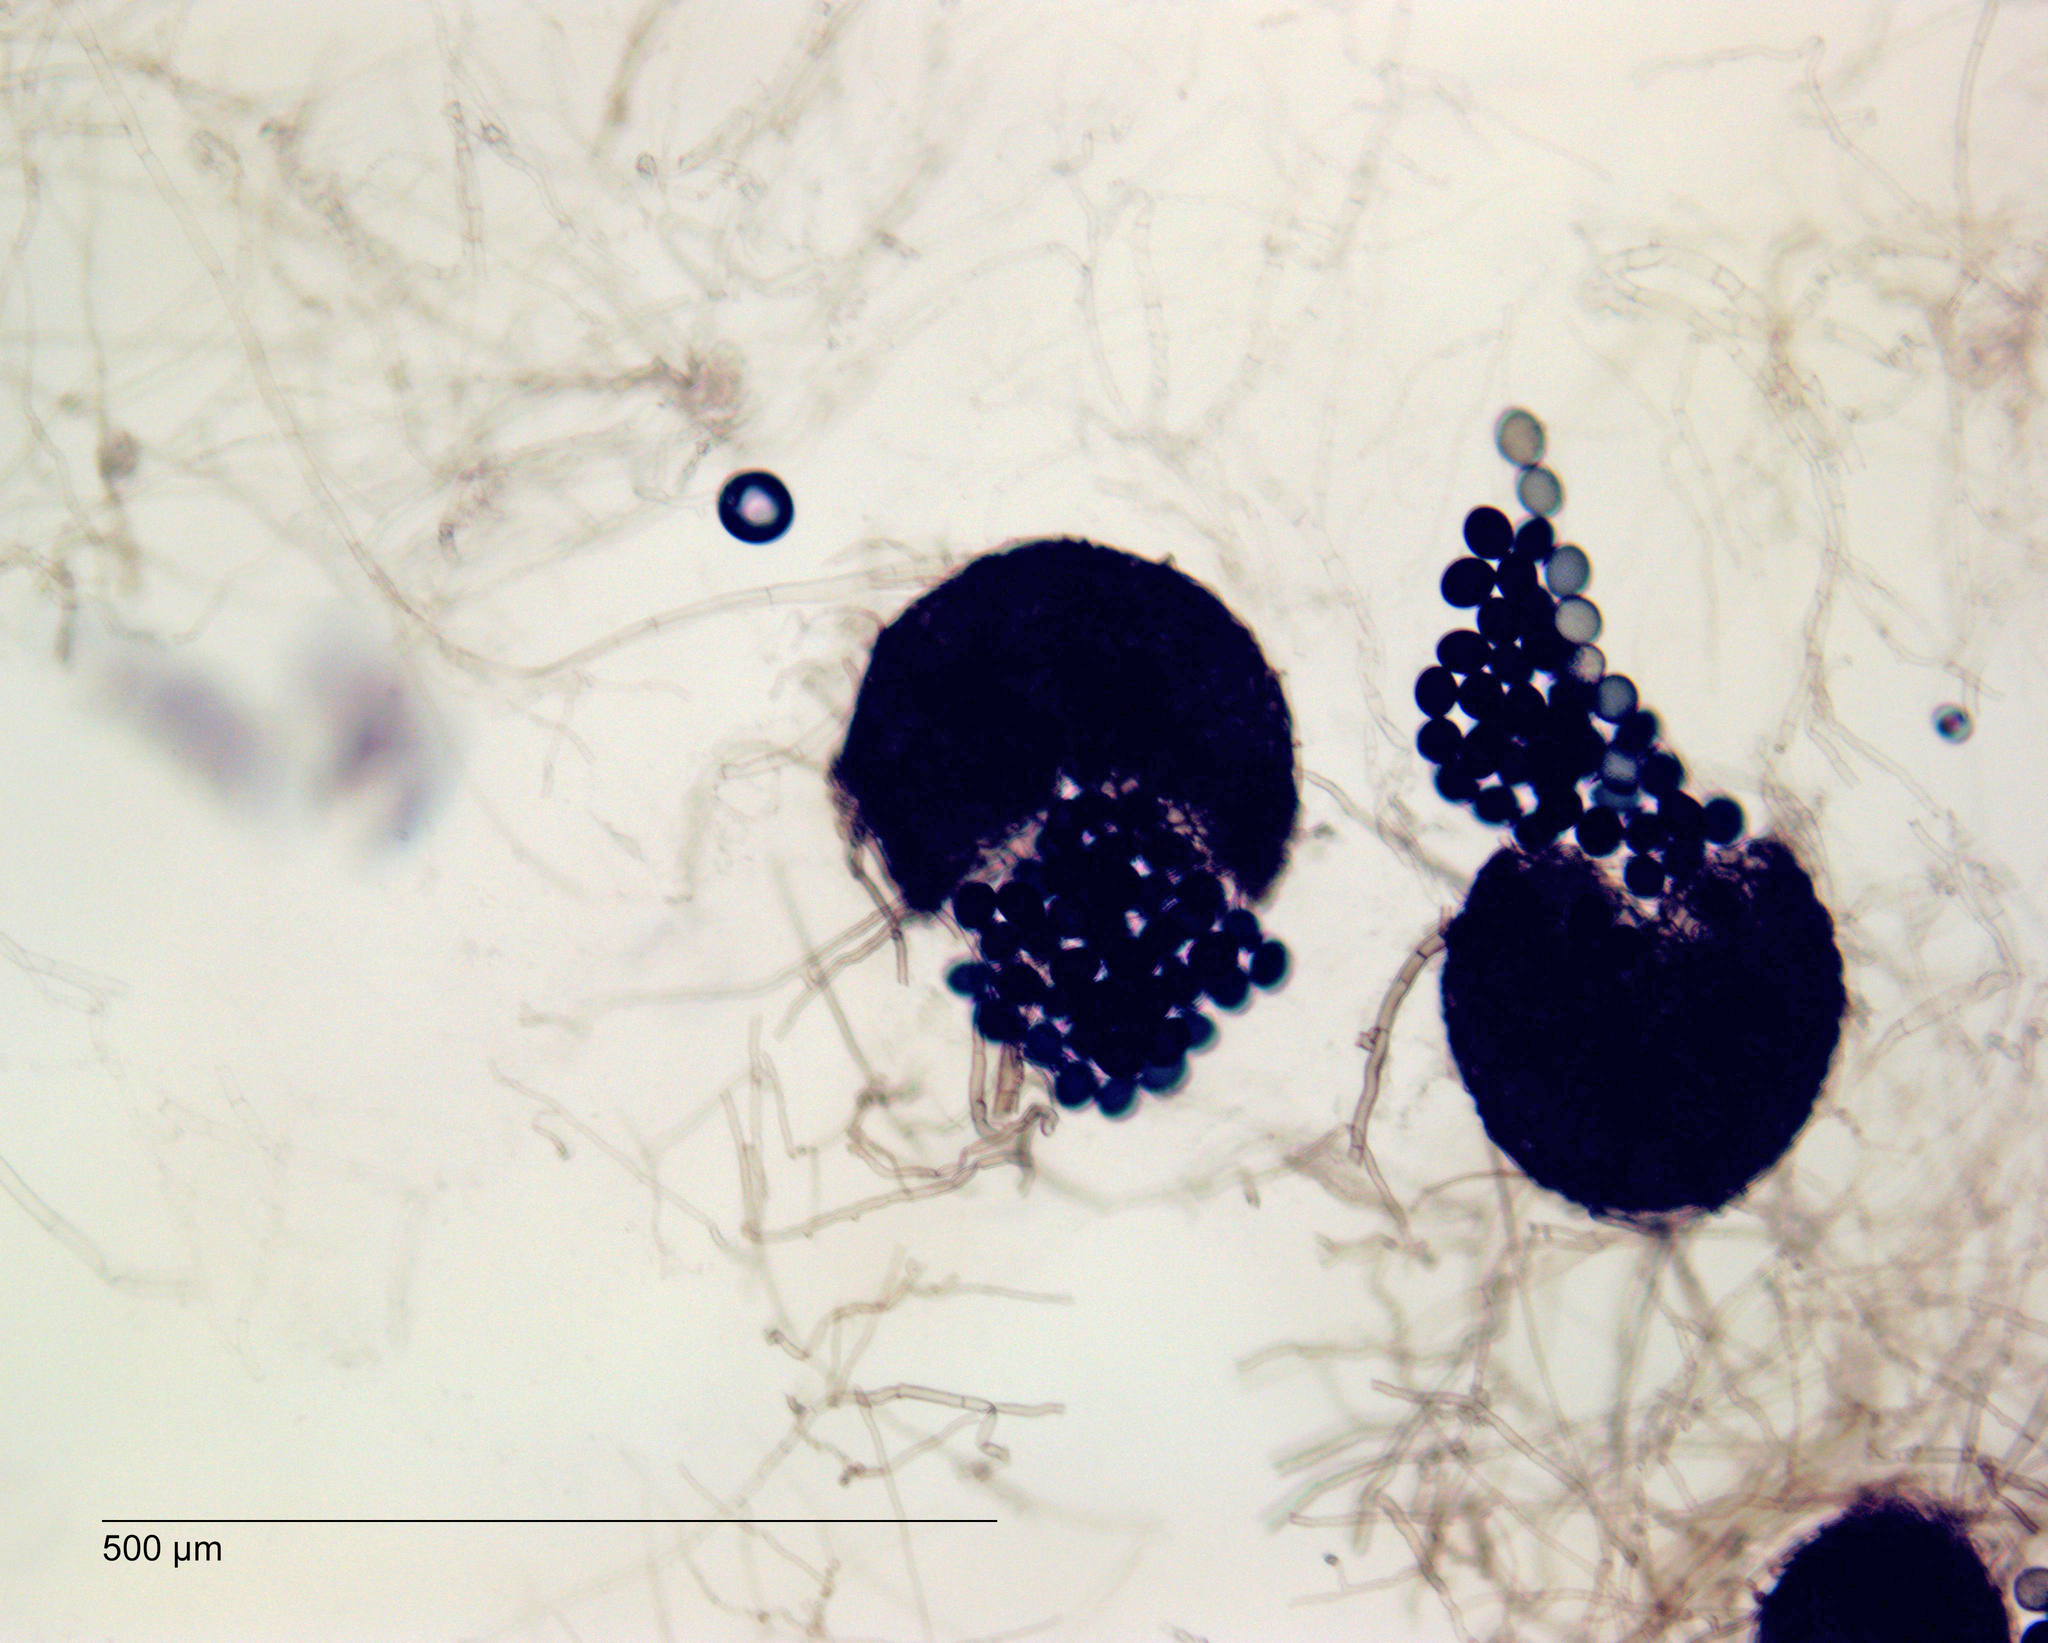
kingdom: Fungi
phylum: Ascomycota
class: Sordariomycetes
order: Sordariales
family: Sordariaceae
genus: Neurospora
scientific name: Neurospora endodonta
